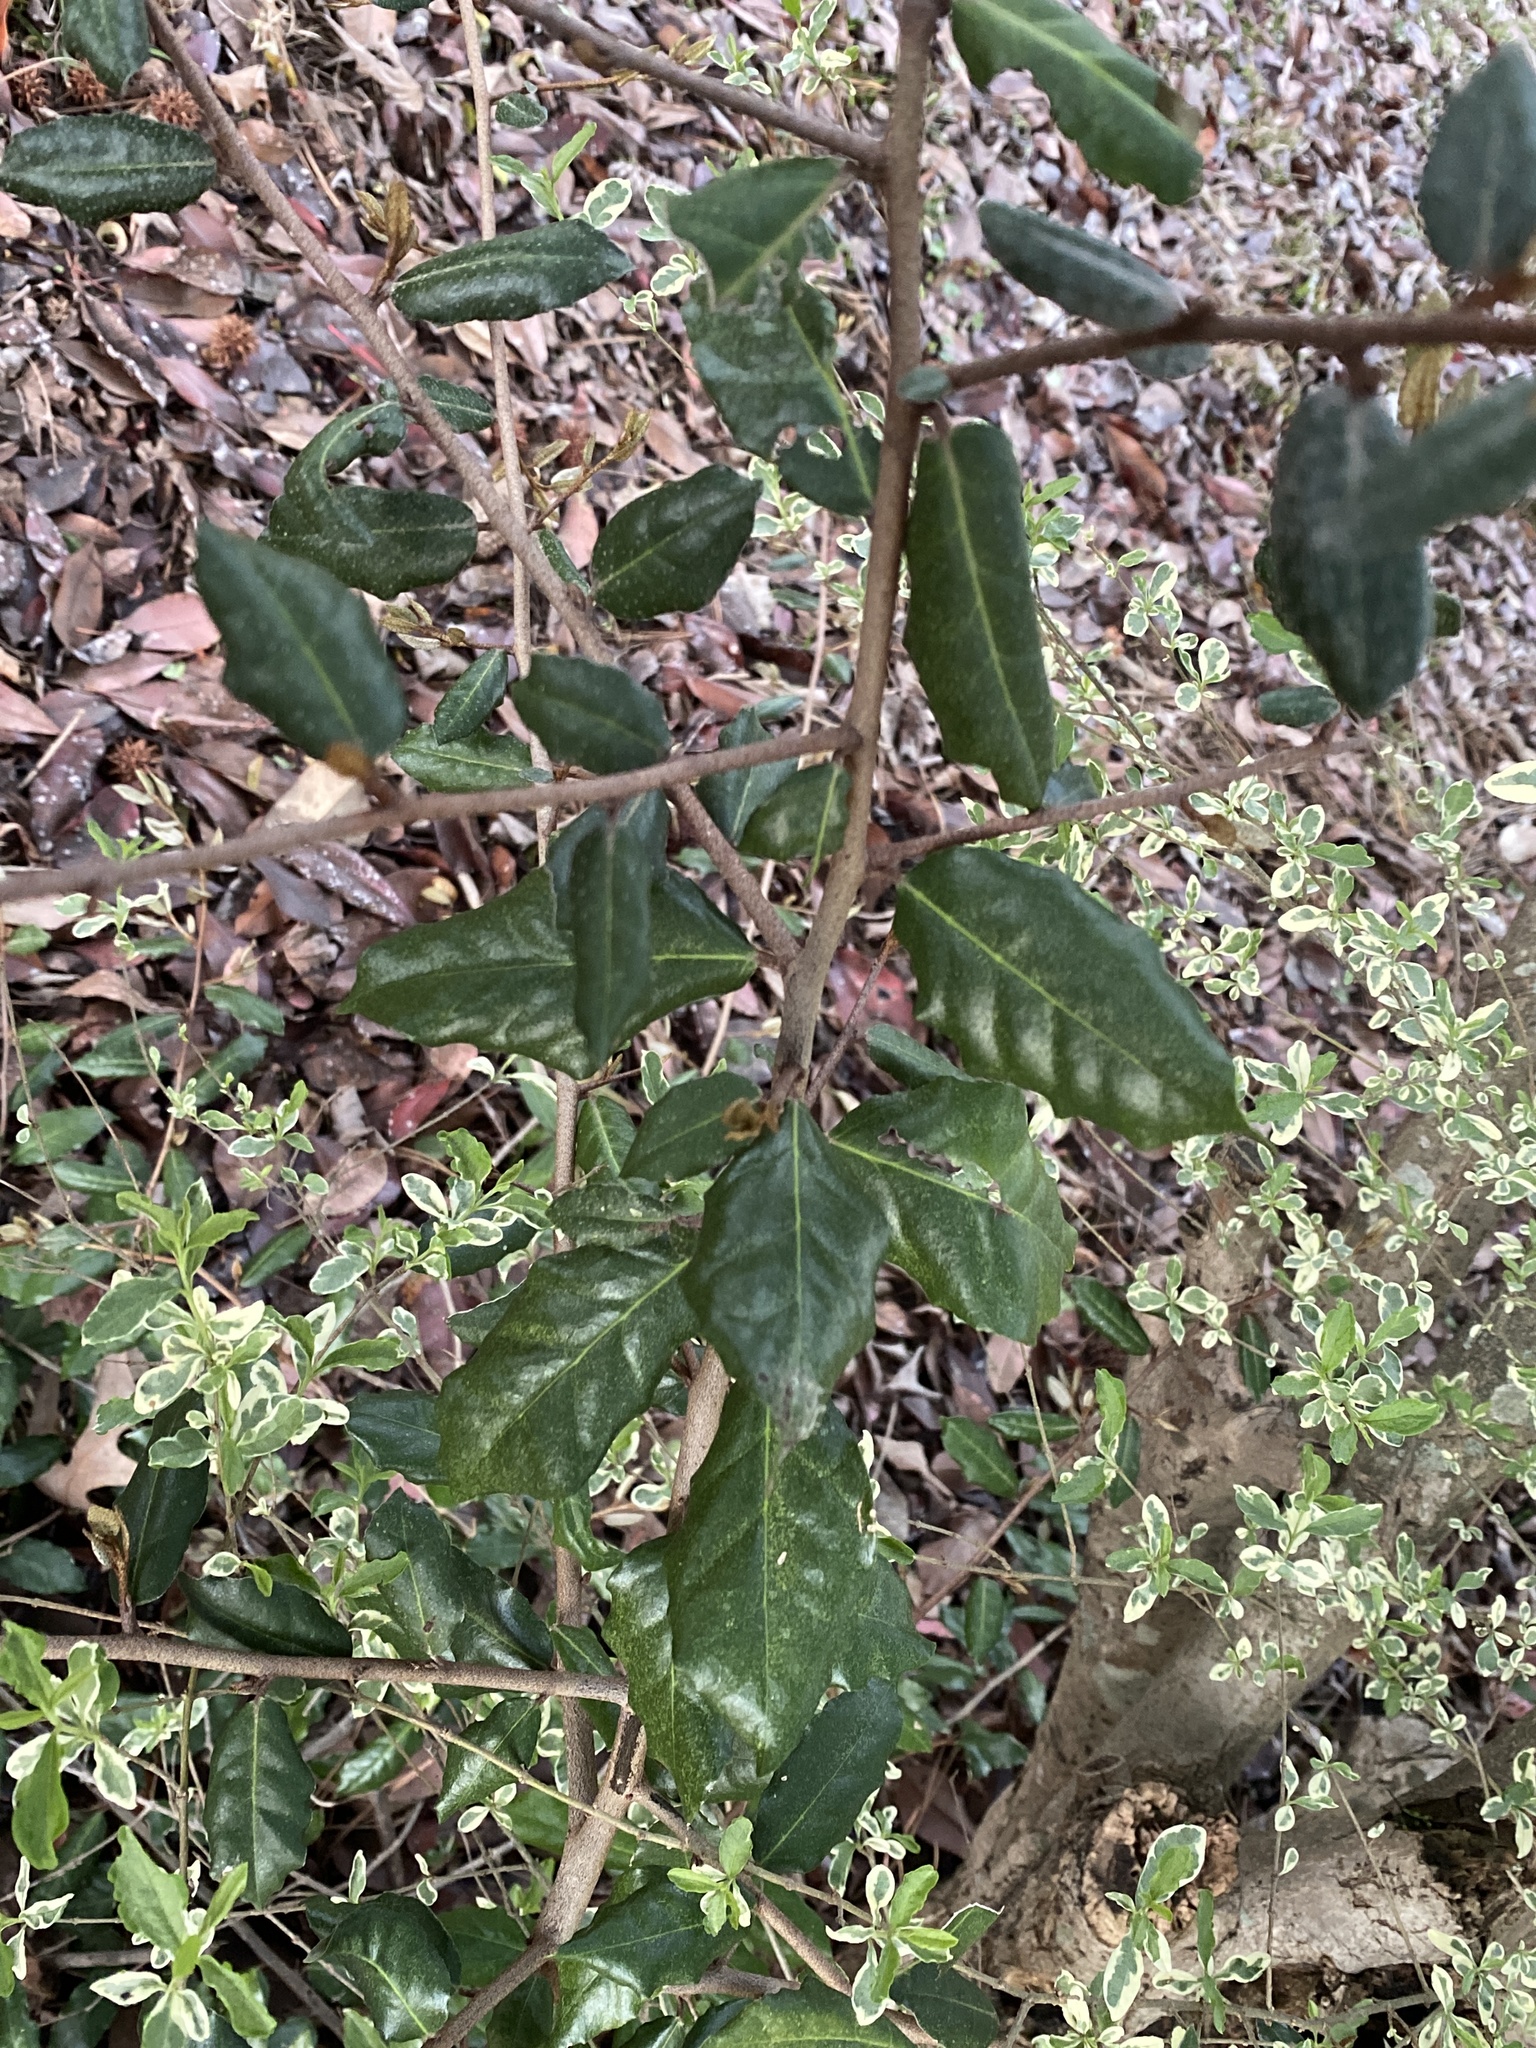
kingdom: Plantae
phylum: Tracheophyta
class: Magnoliopsida
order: Rosales
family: Elaeagnaceae
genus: Elaeagnus
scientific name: Elaeagnus pungens
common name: Spiny oleaster
